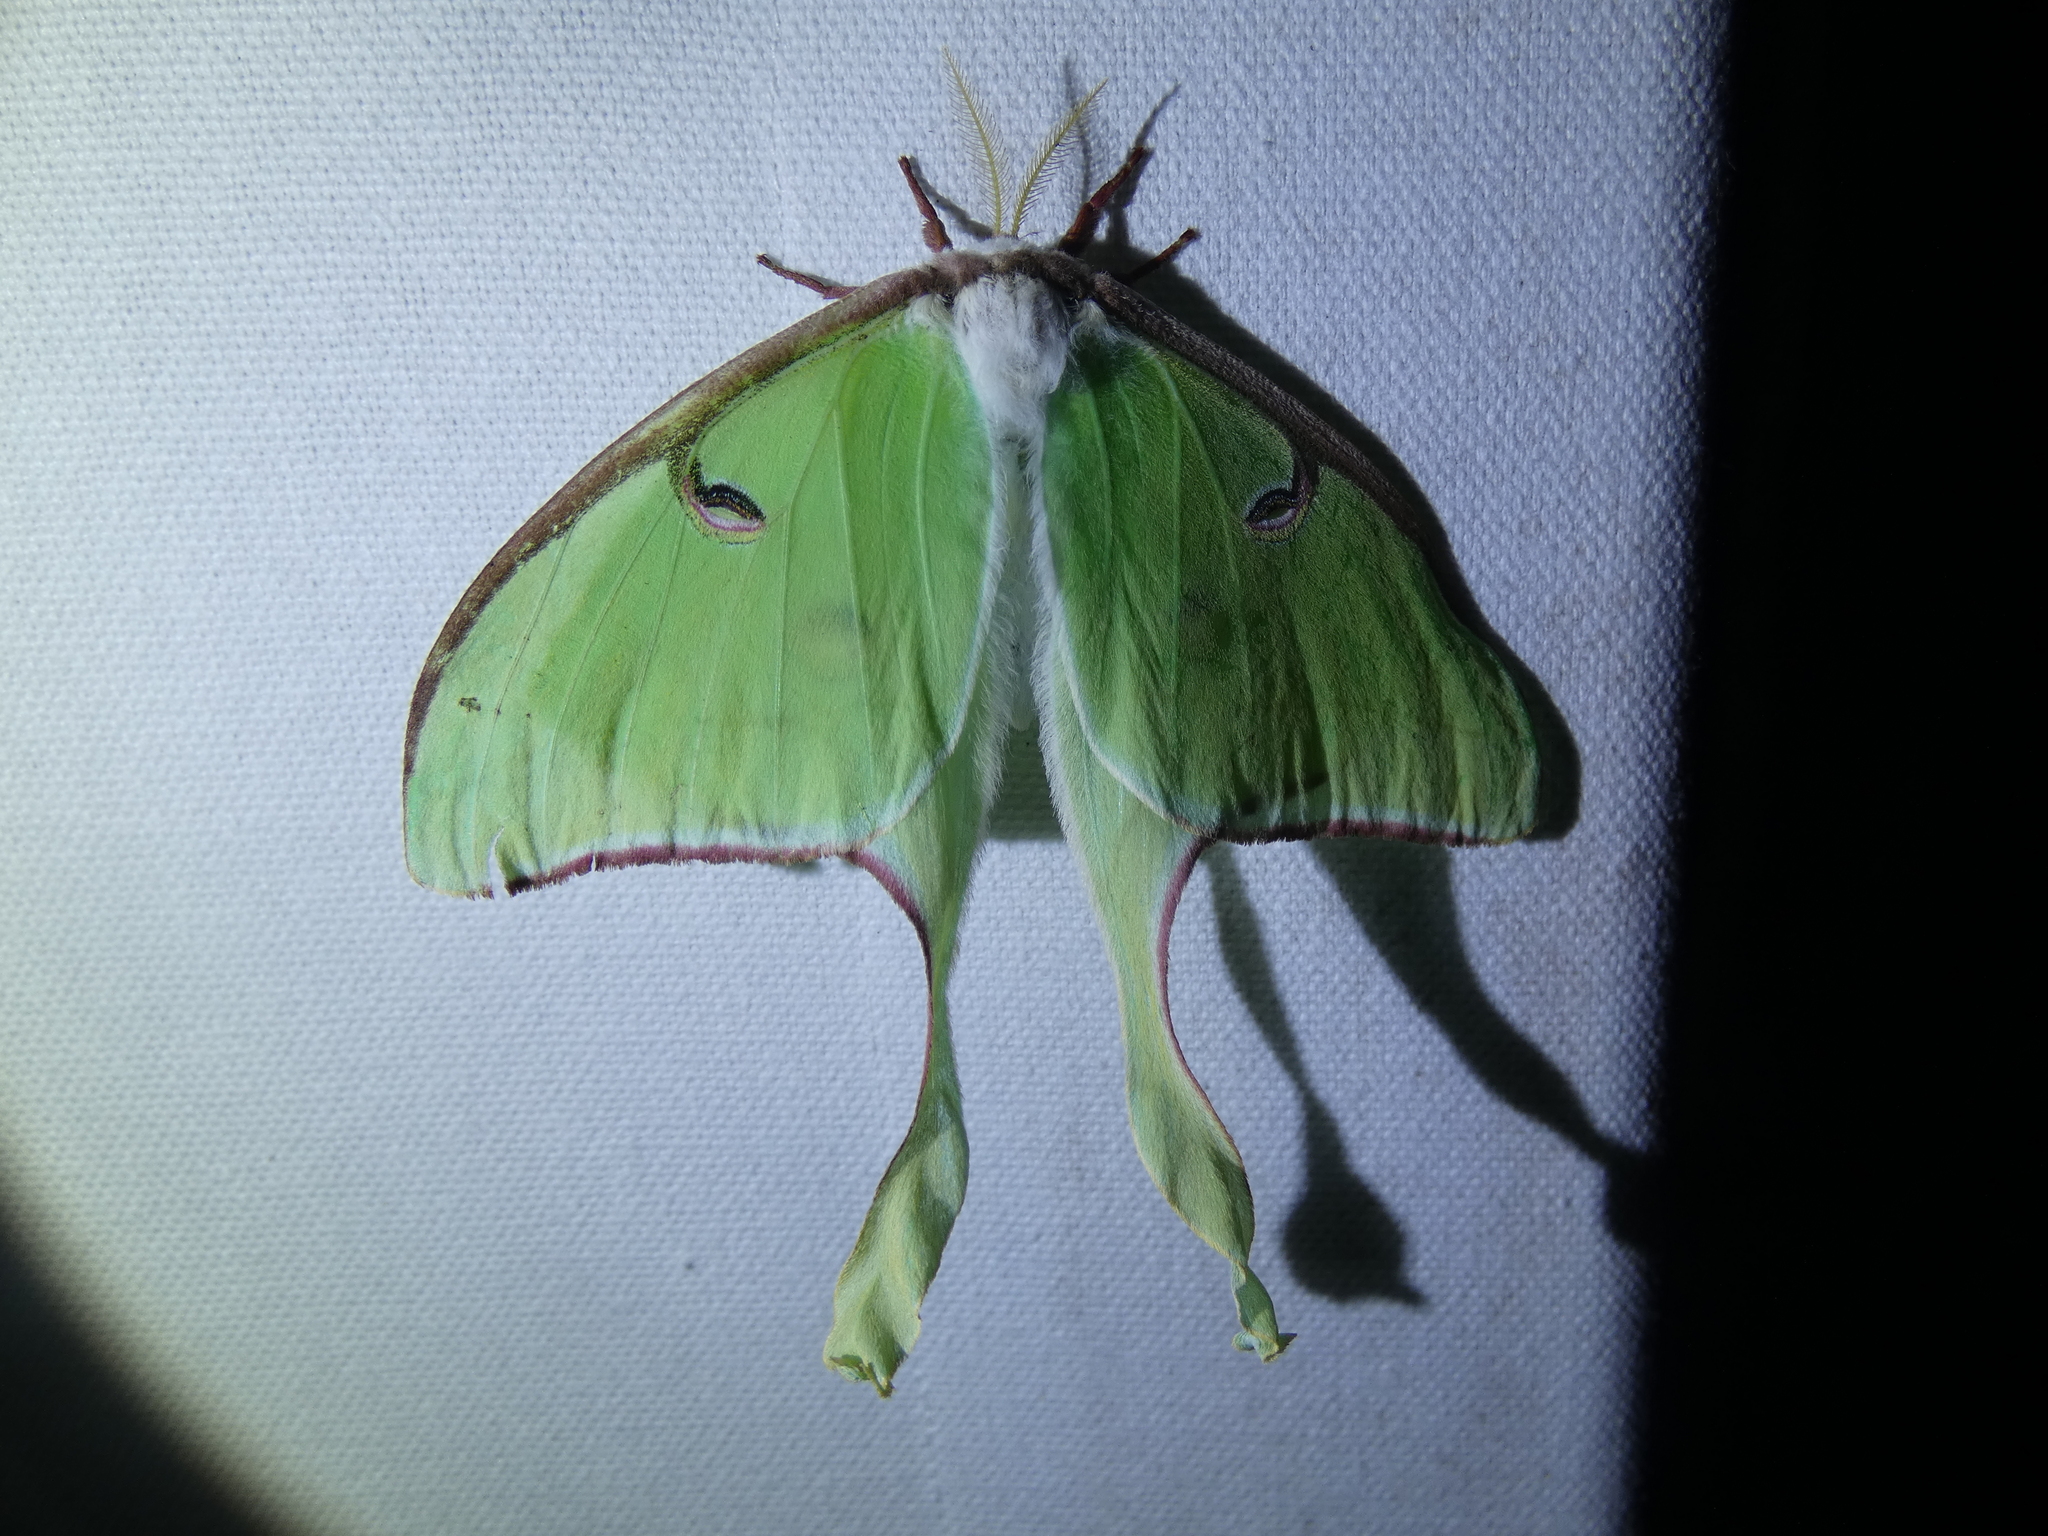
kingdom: Animalia
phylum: Arthropoda
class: Insecta
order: Lepidoptera
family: Saturniidae
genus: Actias
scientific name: Actias luna
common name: Luna moth
